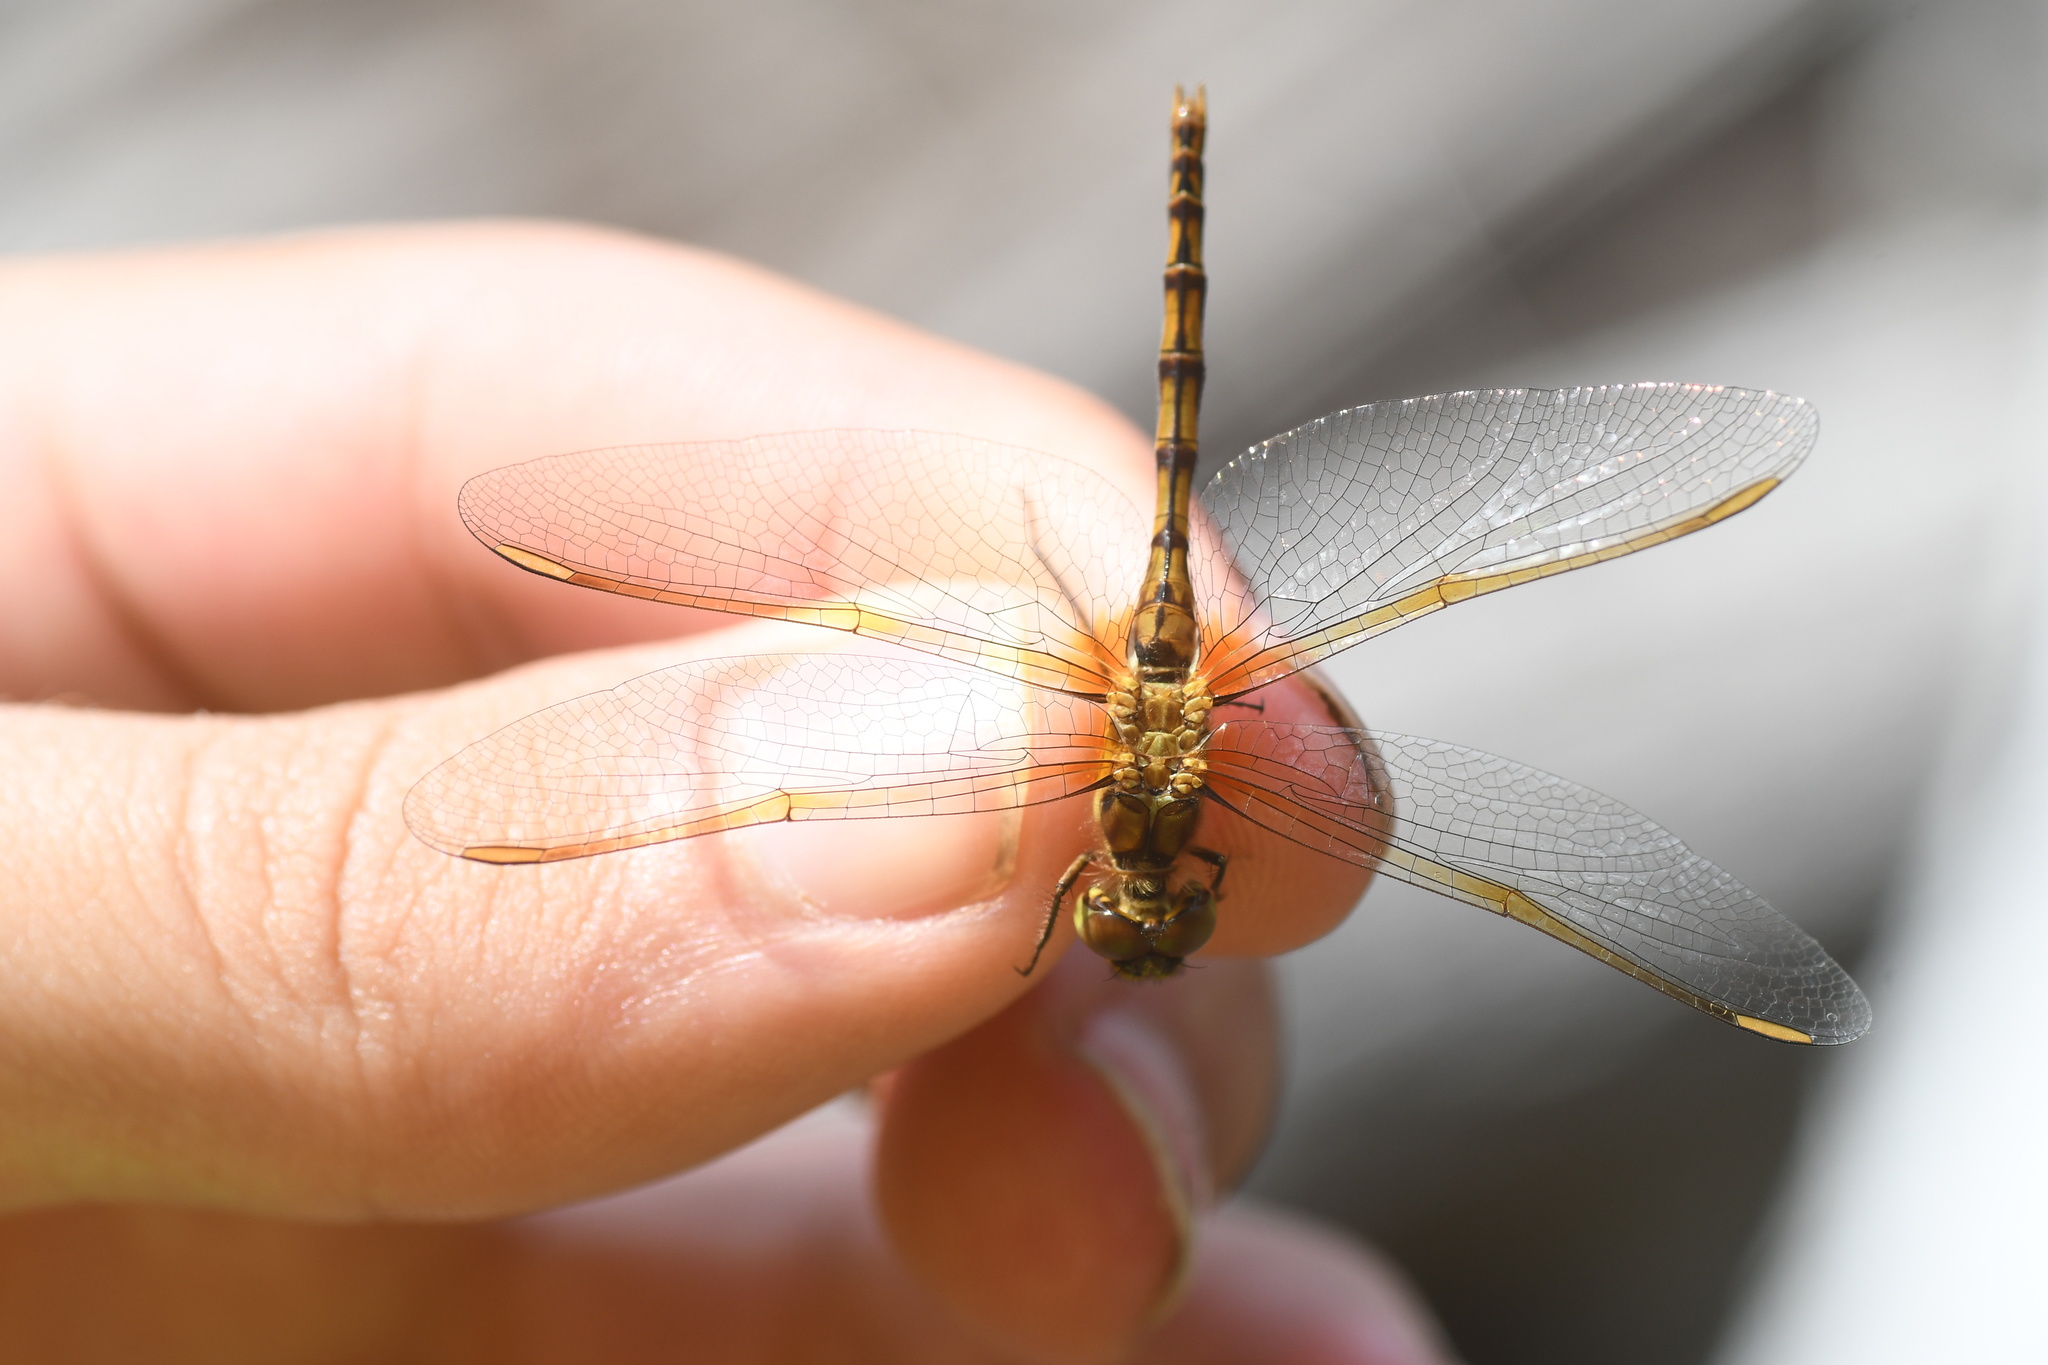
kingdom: Animalia
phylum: Arthropoda
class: Insecta
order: Odonata
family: Libellulidae
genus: Sympetrum
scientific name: Sympetrum costiferum
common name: Saffron-winged meadowhawk
